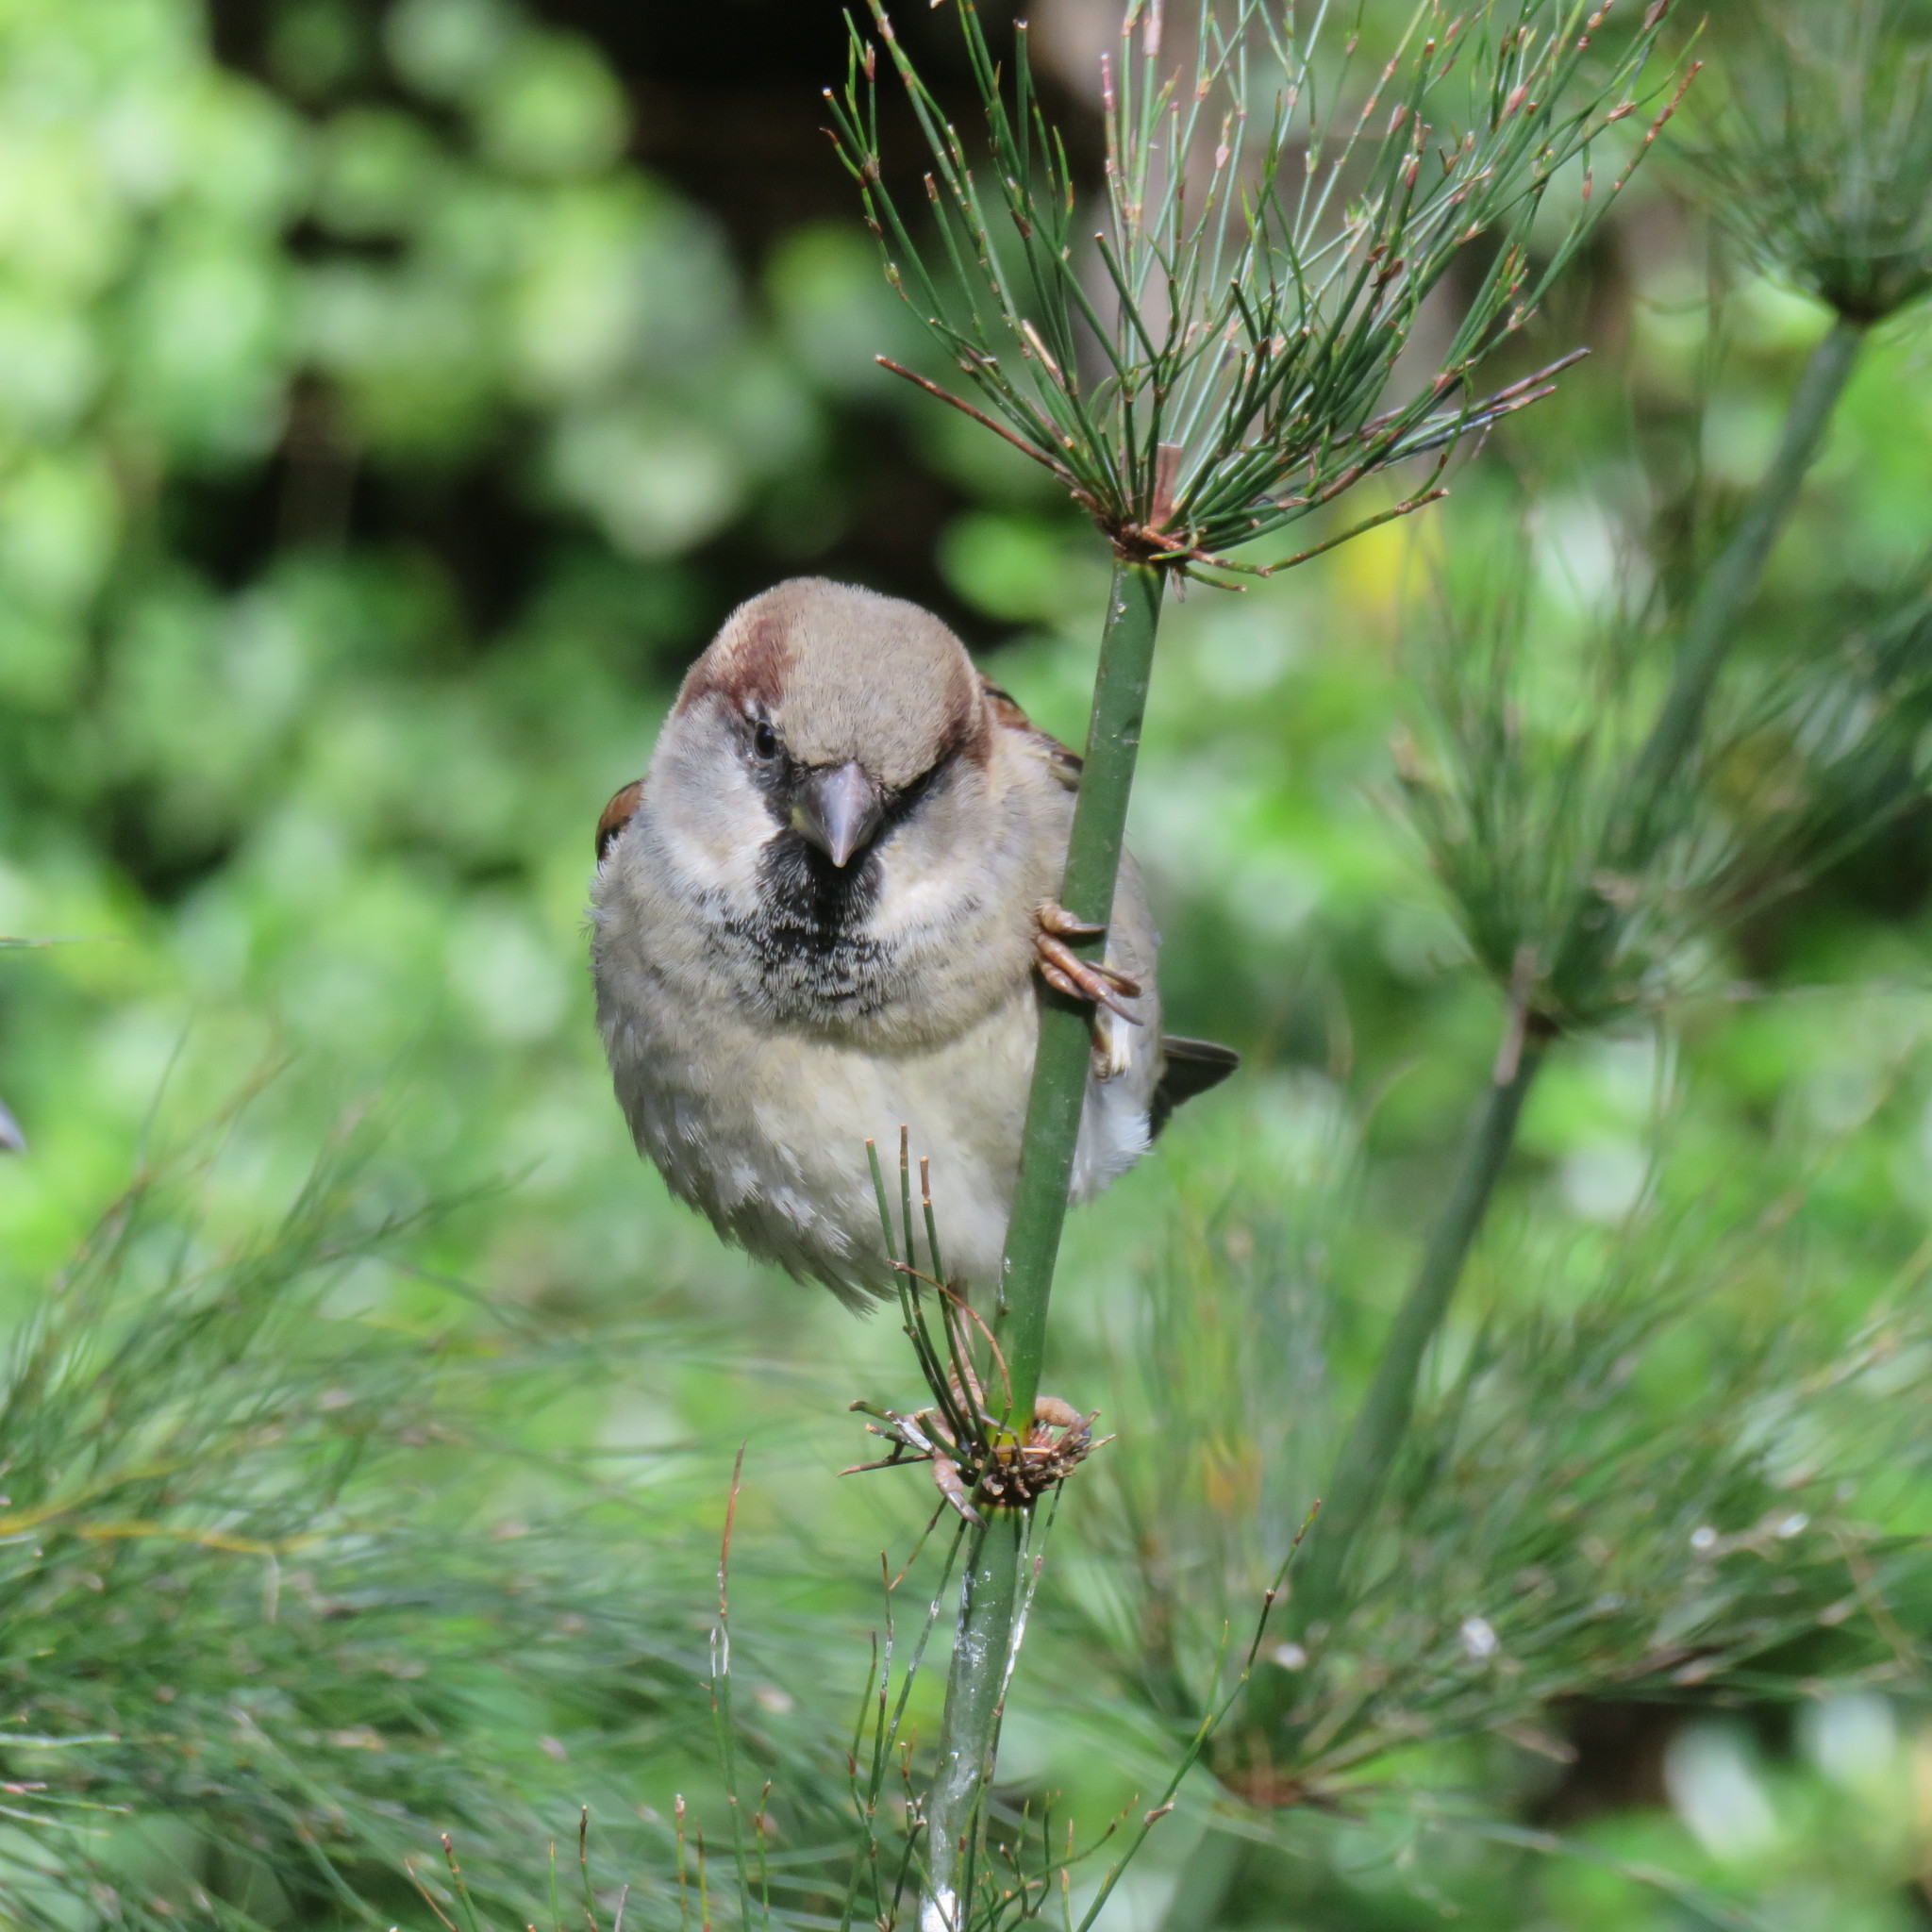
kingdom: Animalia
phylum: Chordata
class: Aves
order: Passeriformes
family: Passeridae
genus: Passer
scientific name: Passer domesticus
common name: House sparrow
